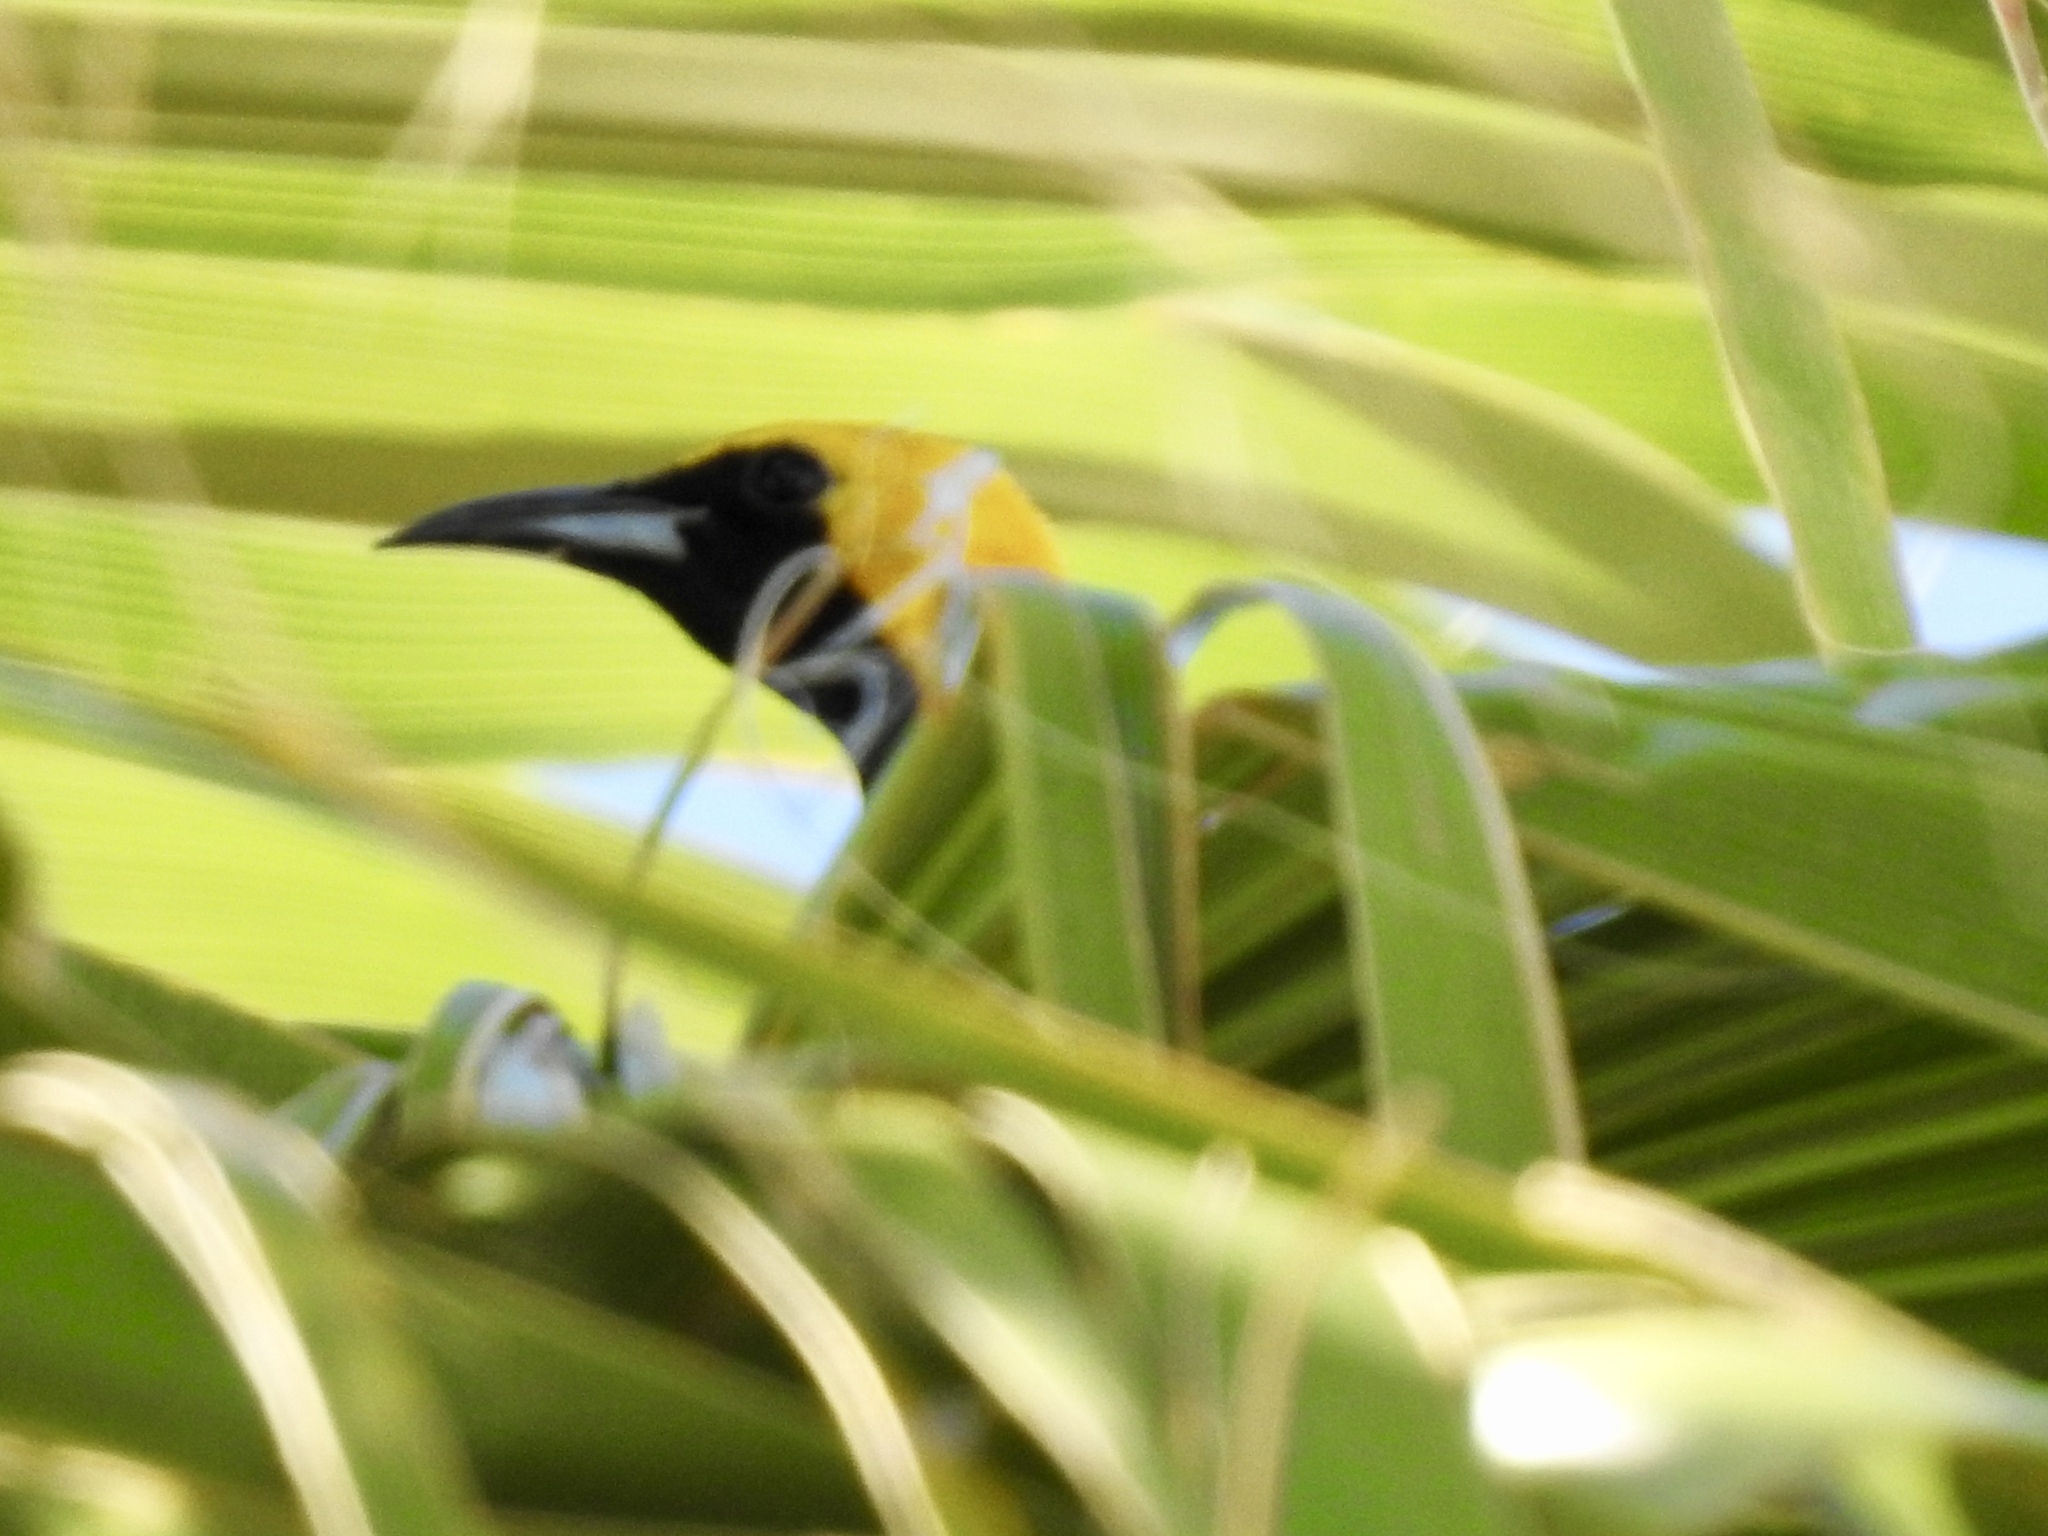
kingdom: Animalia
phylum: Chordata
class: Aves
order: Passeriformes
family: Icteridae
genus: Icterus
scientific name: Icterus cucullatus
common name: Hooded oriole
